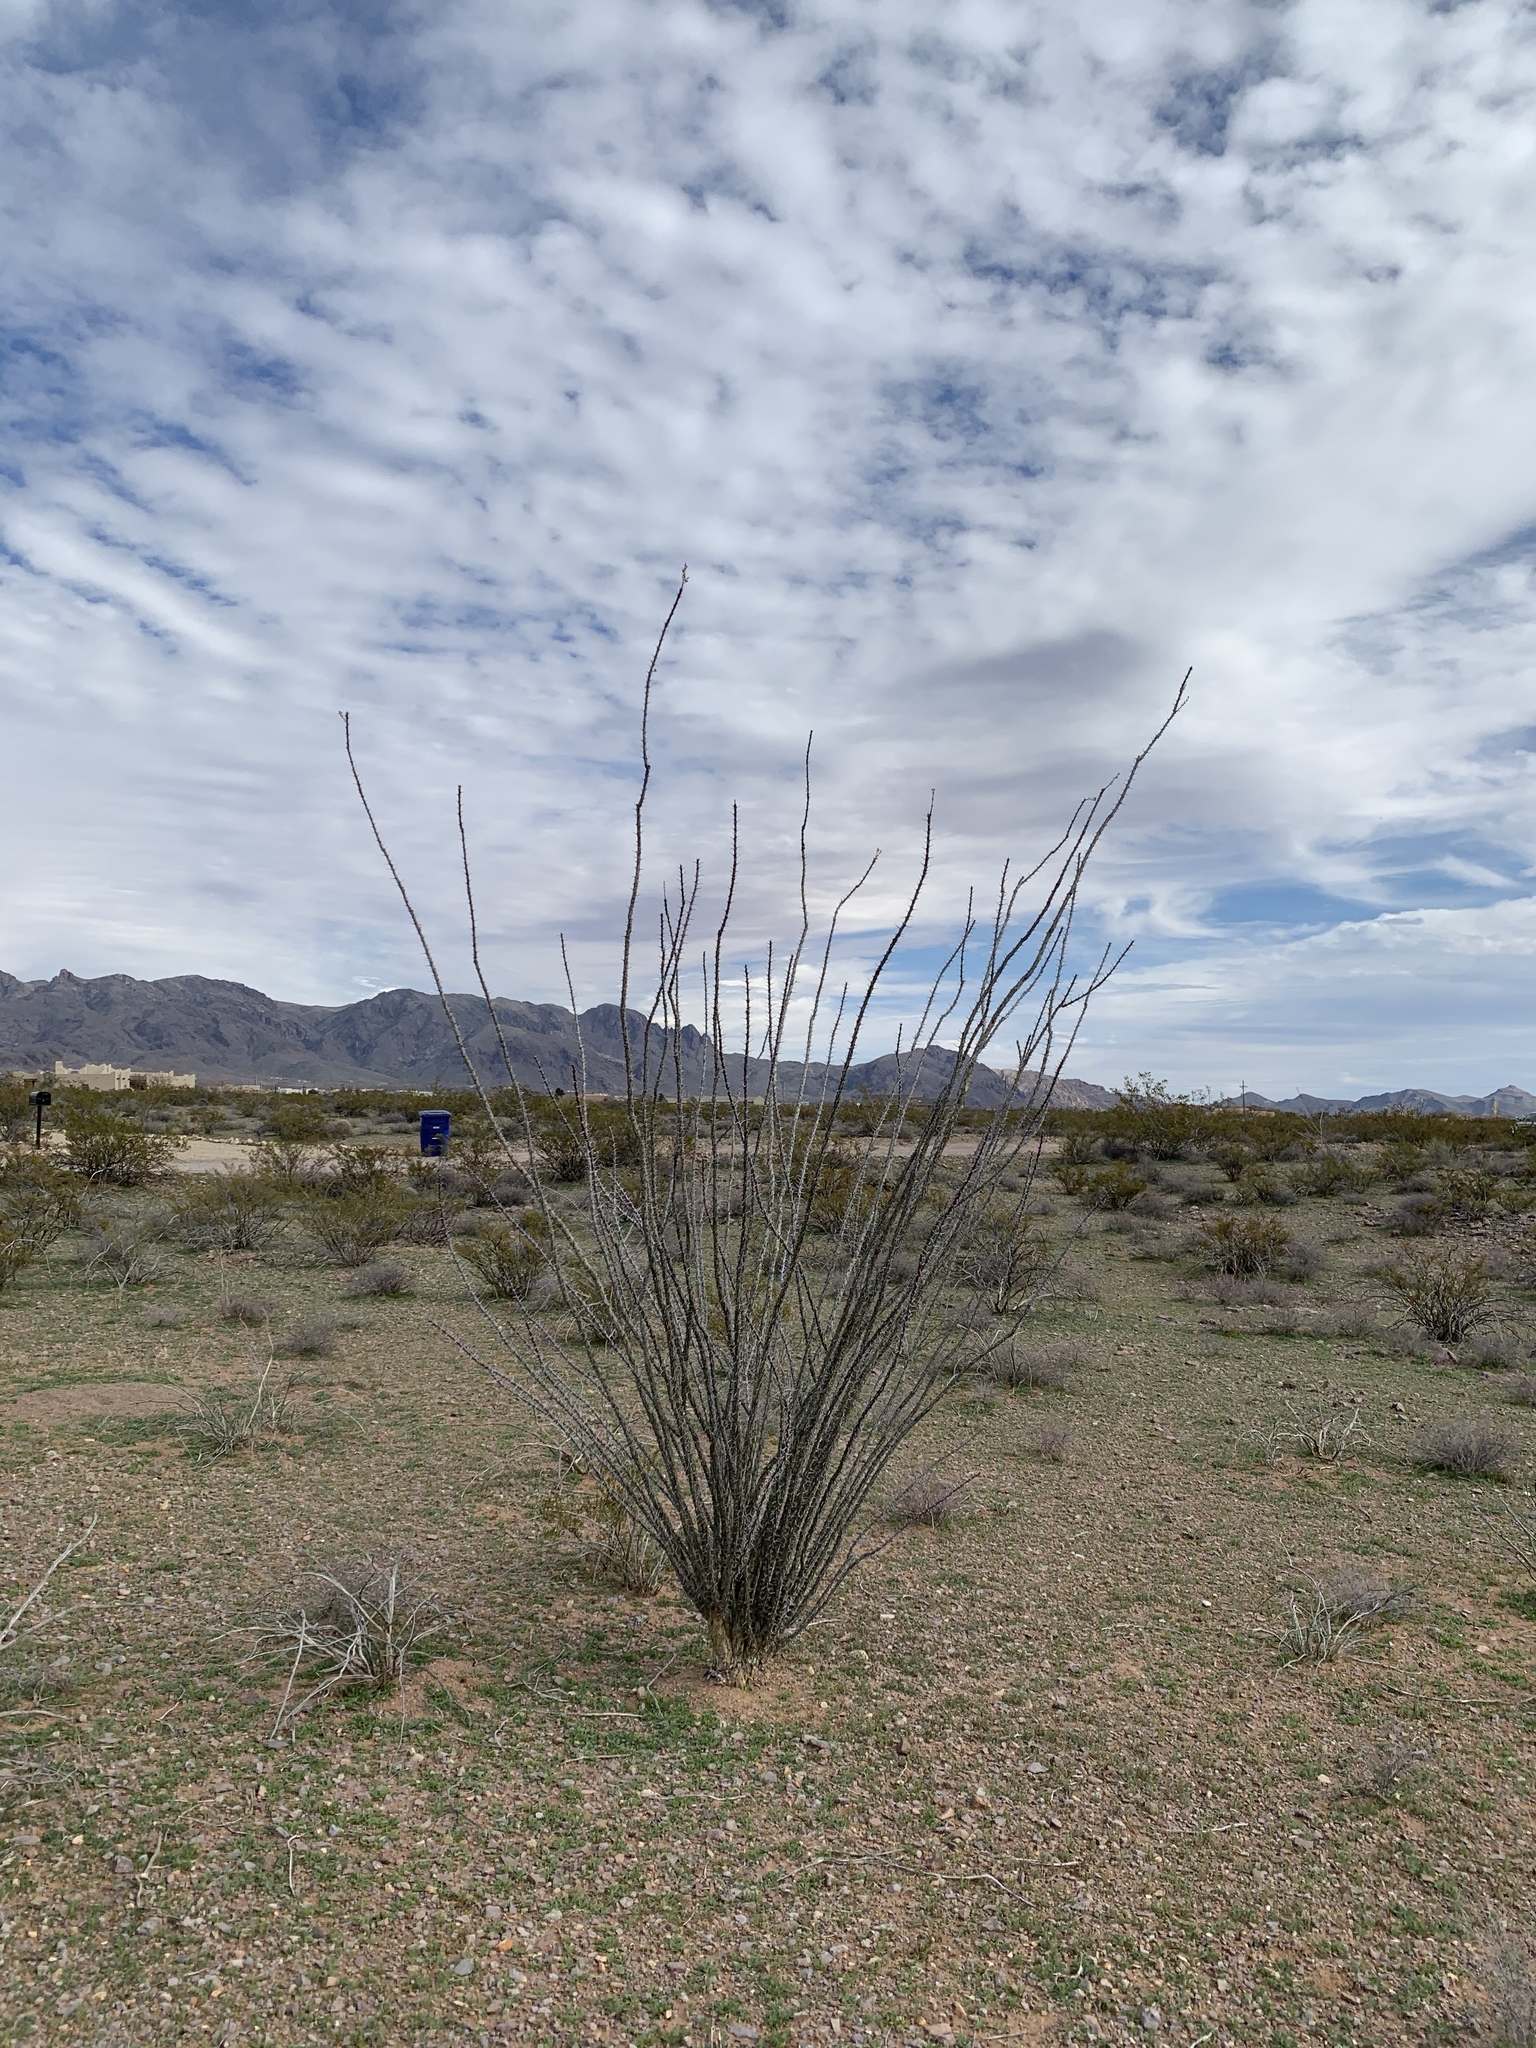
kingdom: Plantae
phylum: Tracheophyta
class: Magnoliopsida
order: Ericales
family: Fouquieriaceae
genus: Fouquieria
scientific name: Fouquieria splendens
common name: Vine-cactus
